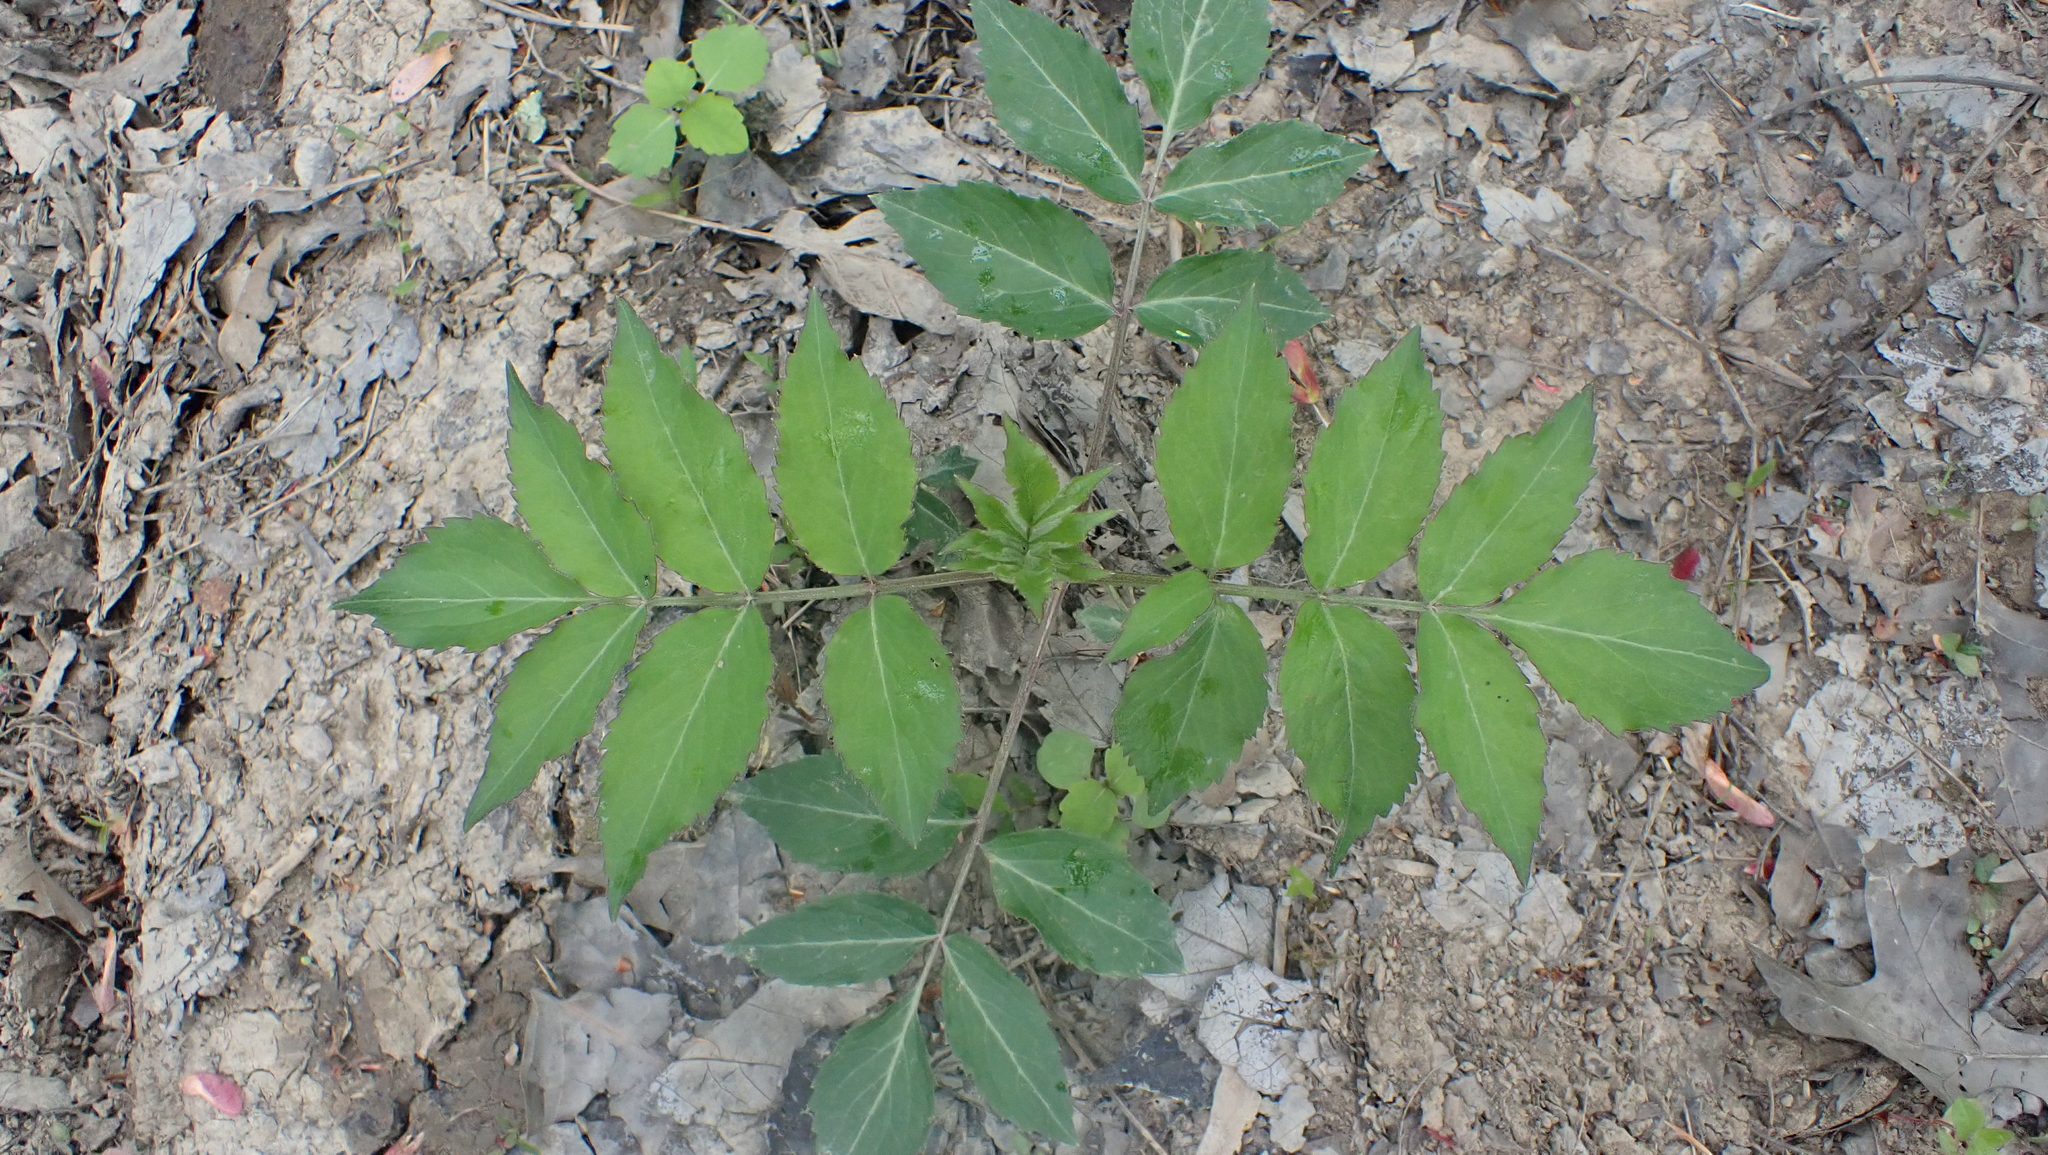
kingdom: Plantae
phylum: Tracheophyta
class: Magnoliopsida
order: Dipsacales
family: Viburnaceae
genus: Sambucus
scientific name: Sambucus canadensis
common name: American elder
